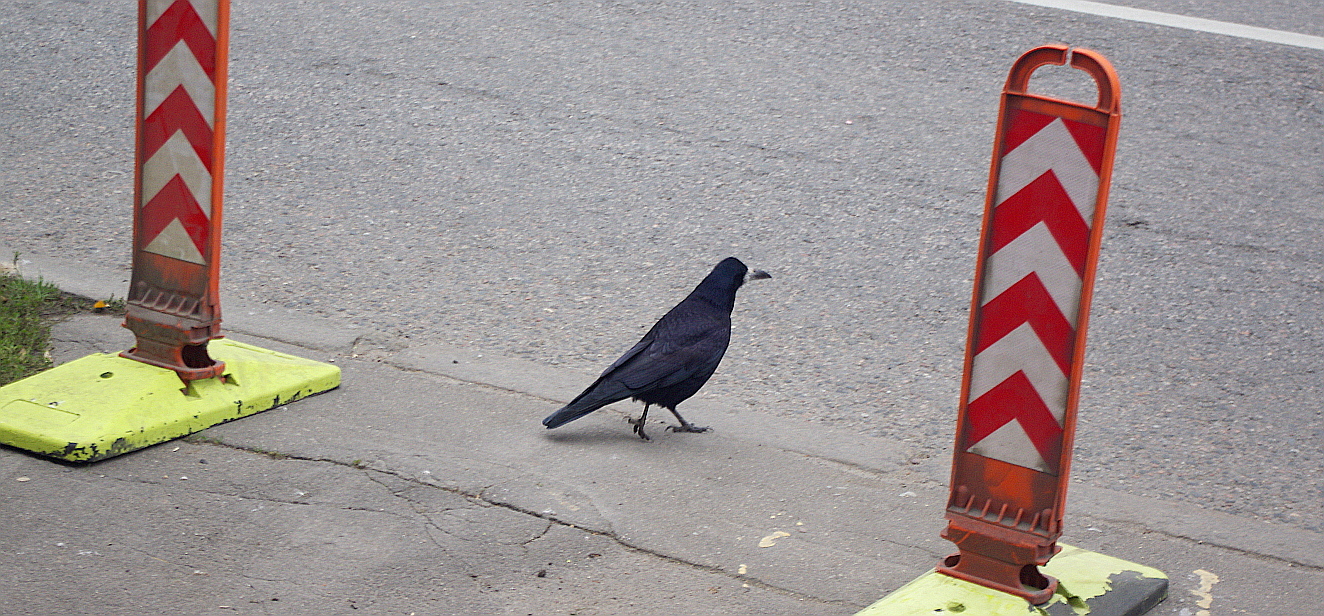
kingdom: Animalia
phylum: Chordata
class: Aves
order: Passeriformes
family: Corvidae
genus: Corvus
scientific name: Corvus frugilegus
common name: Rook
